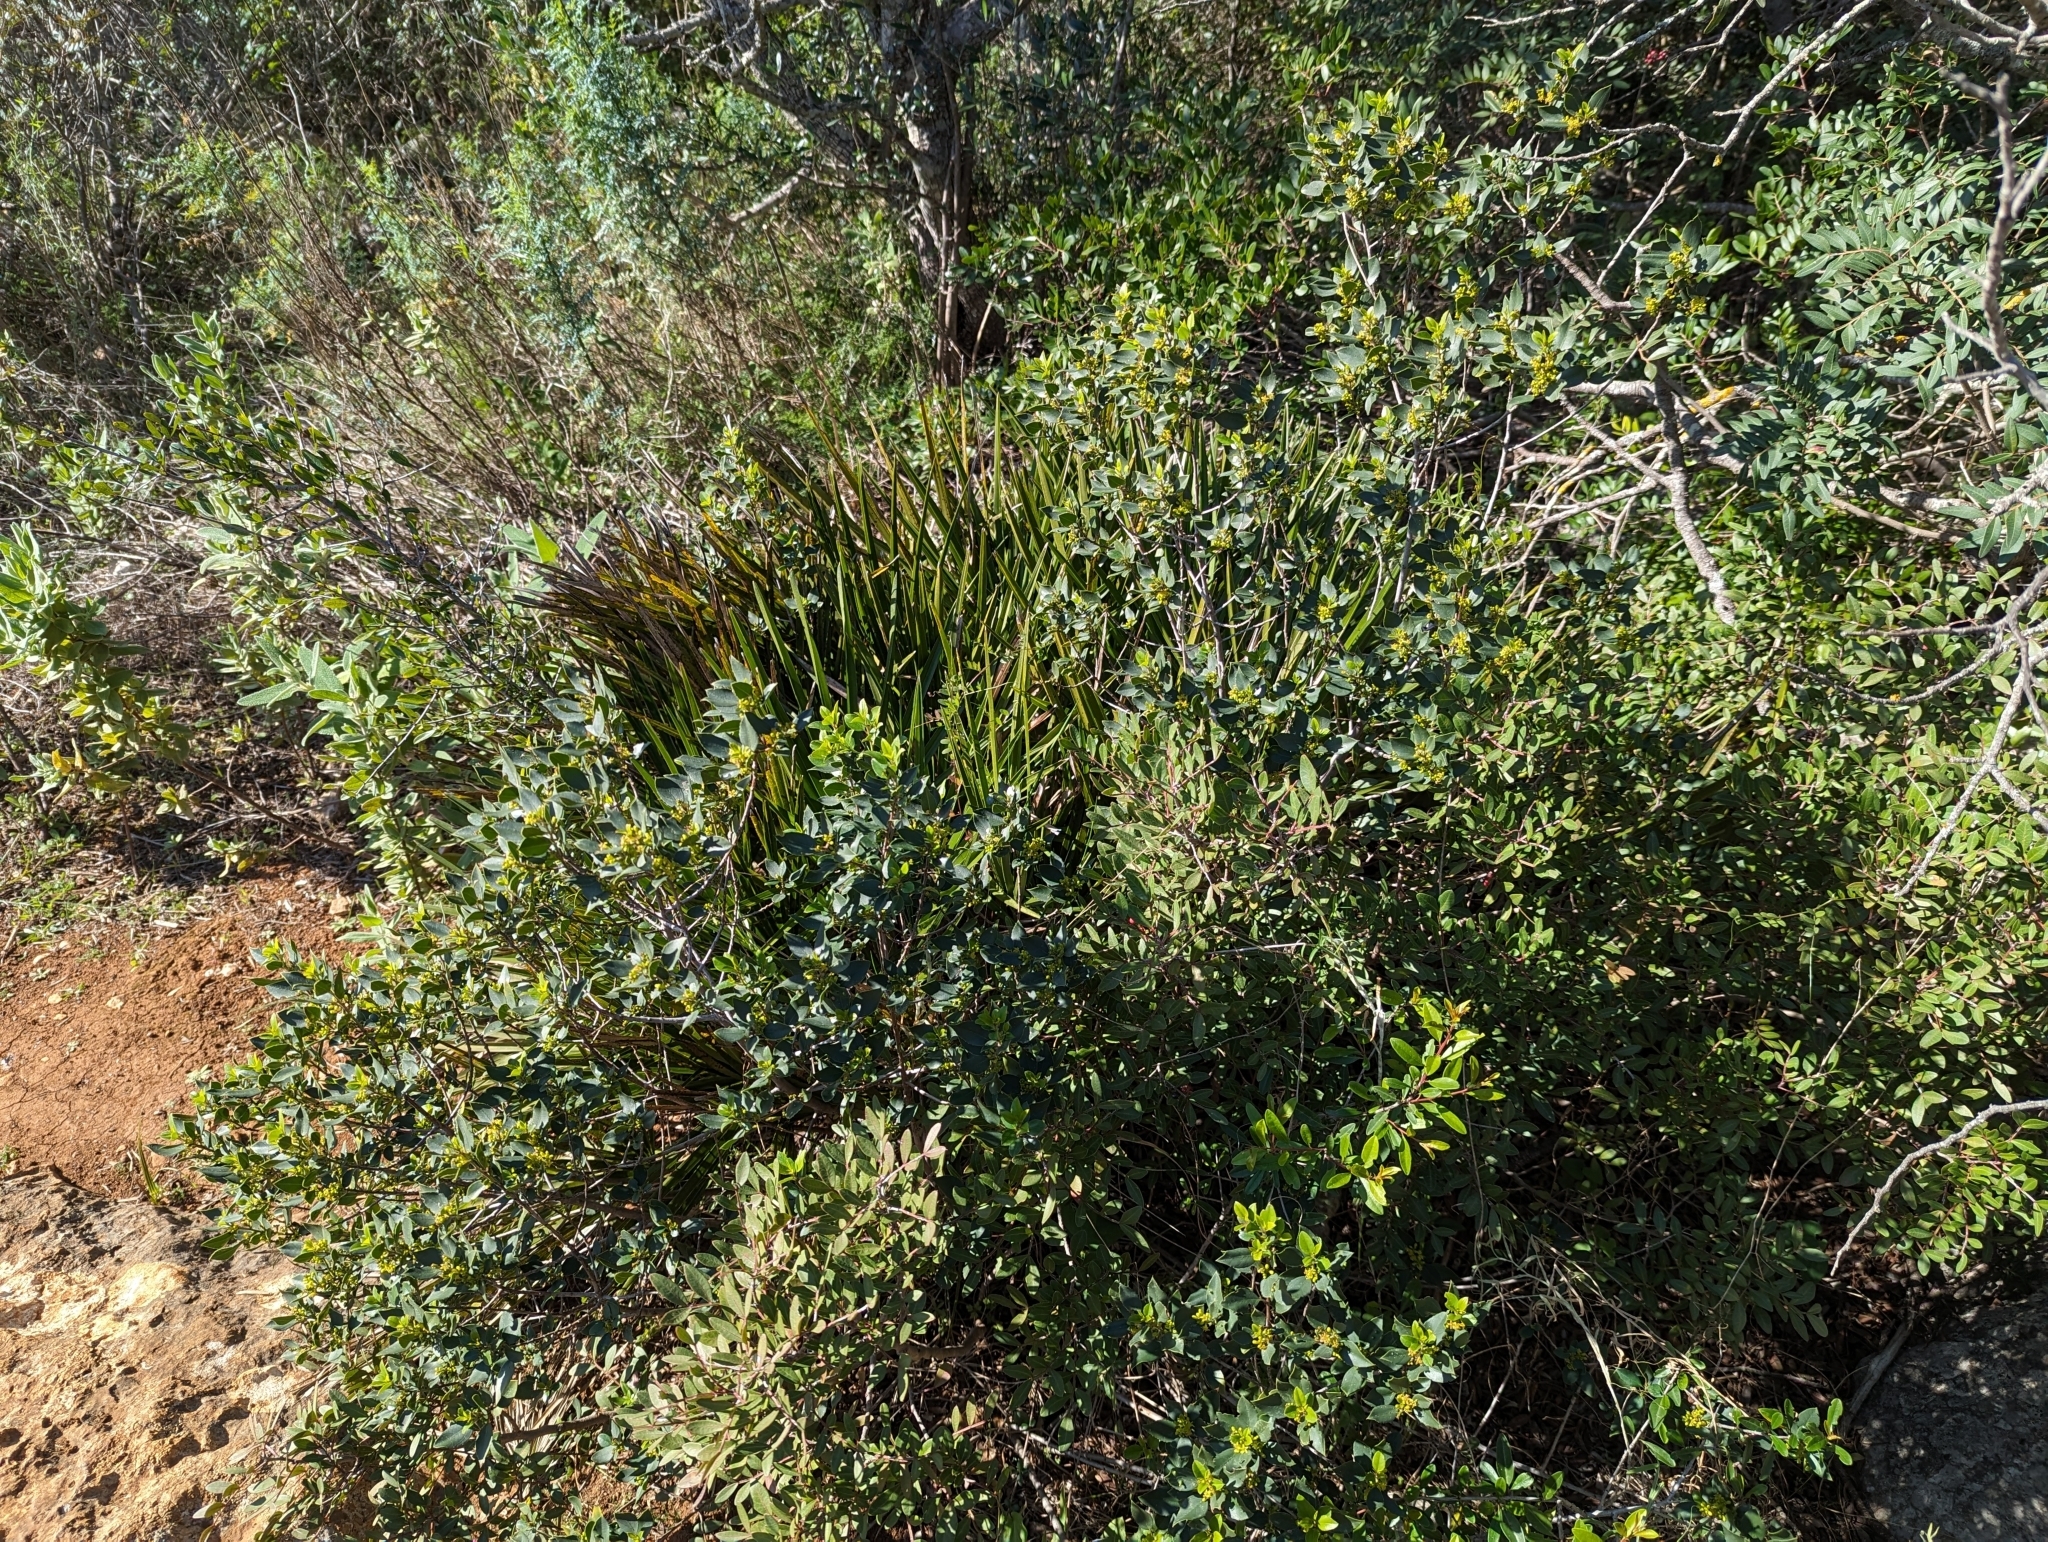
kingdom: Plantae
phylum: Tracheophyta
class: Magnoliopsida
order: Rosales
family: Rhamnaceae
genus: Rhamnus
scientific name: Rhamnus alaternus
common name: Mediterranean buckthorn
